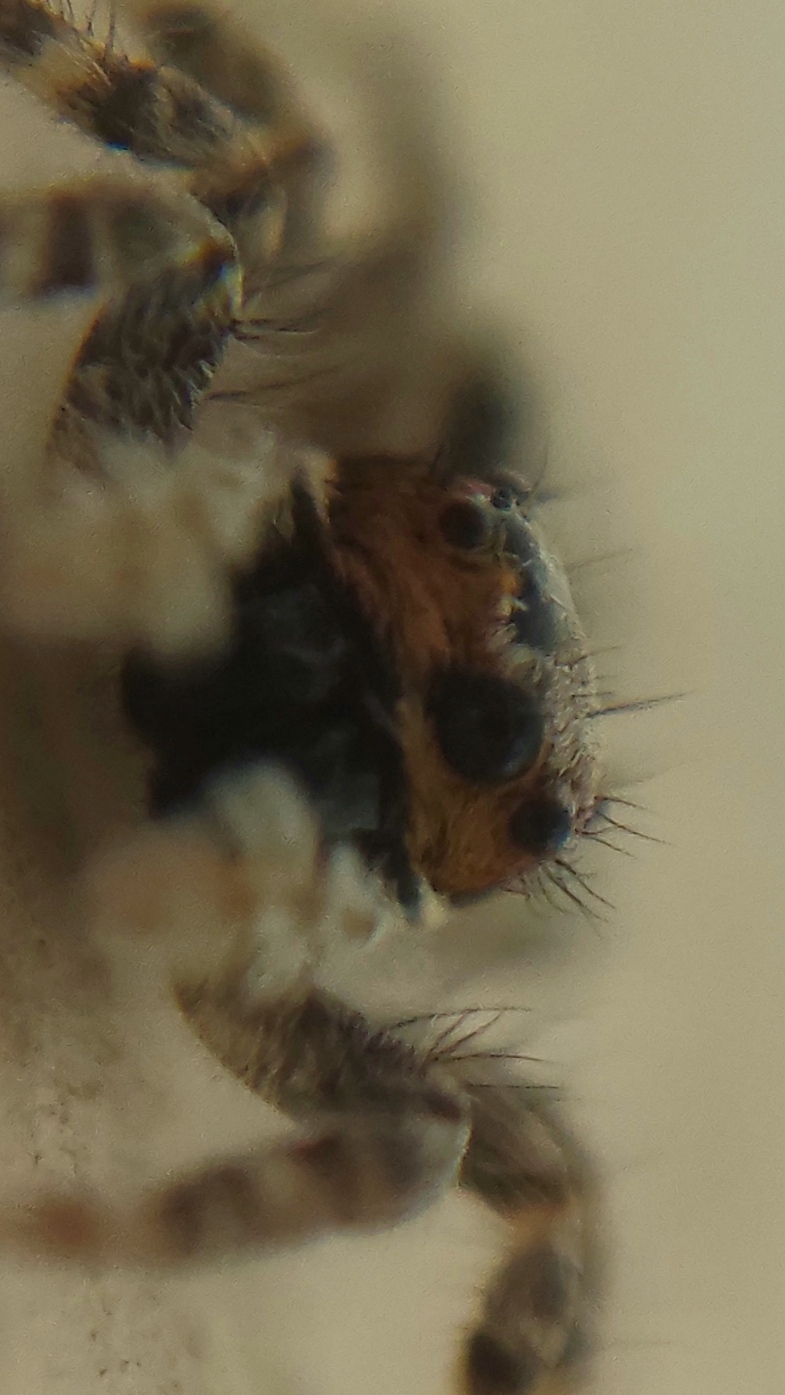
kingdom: Animalia
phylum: Arthropoda
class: Arachnida
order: Araneae
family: Salticidae
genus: Menemerus
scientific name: Menemerus bivittatus
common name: Gray wall jumper
